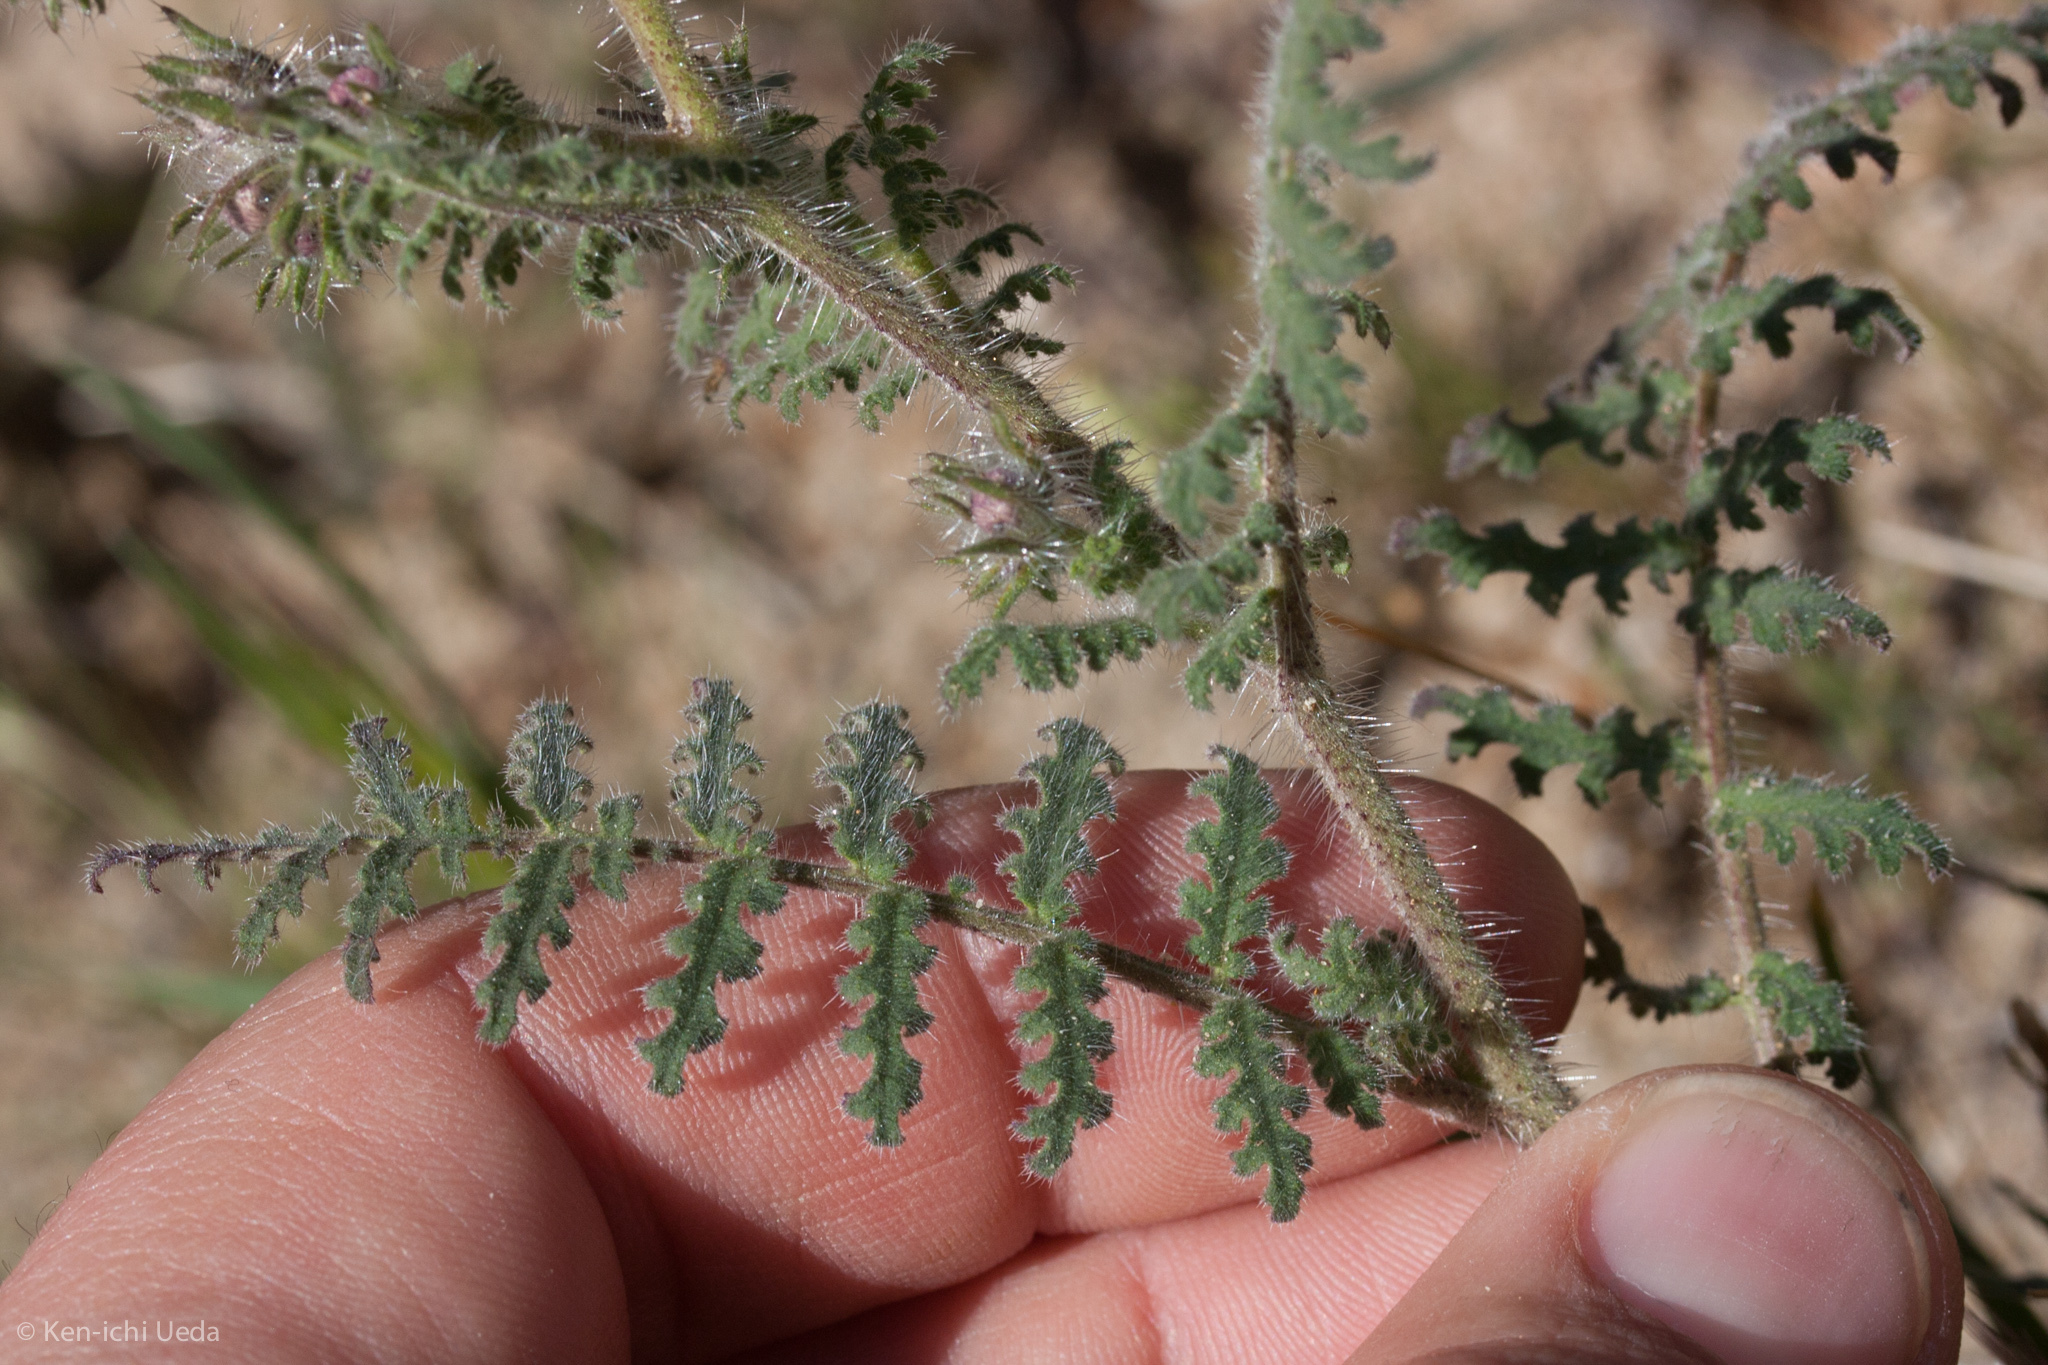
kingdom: Plantae
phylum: Tracheophyta
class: Magnoliopsida
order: Boraginales
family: Hydrophyllaceae
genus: Phacelia
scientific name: Phacelia vallis-mortae
